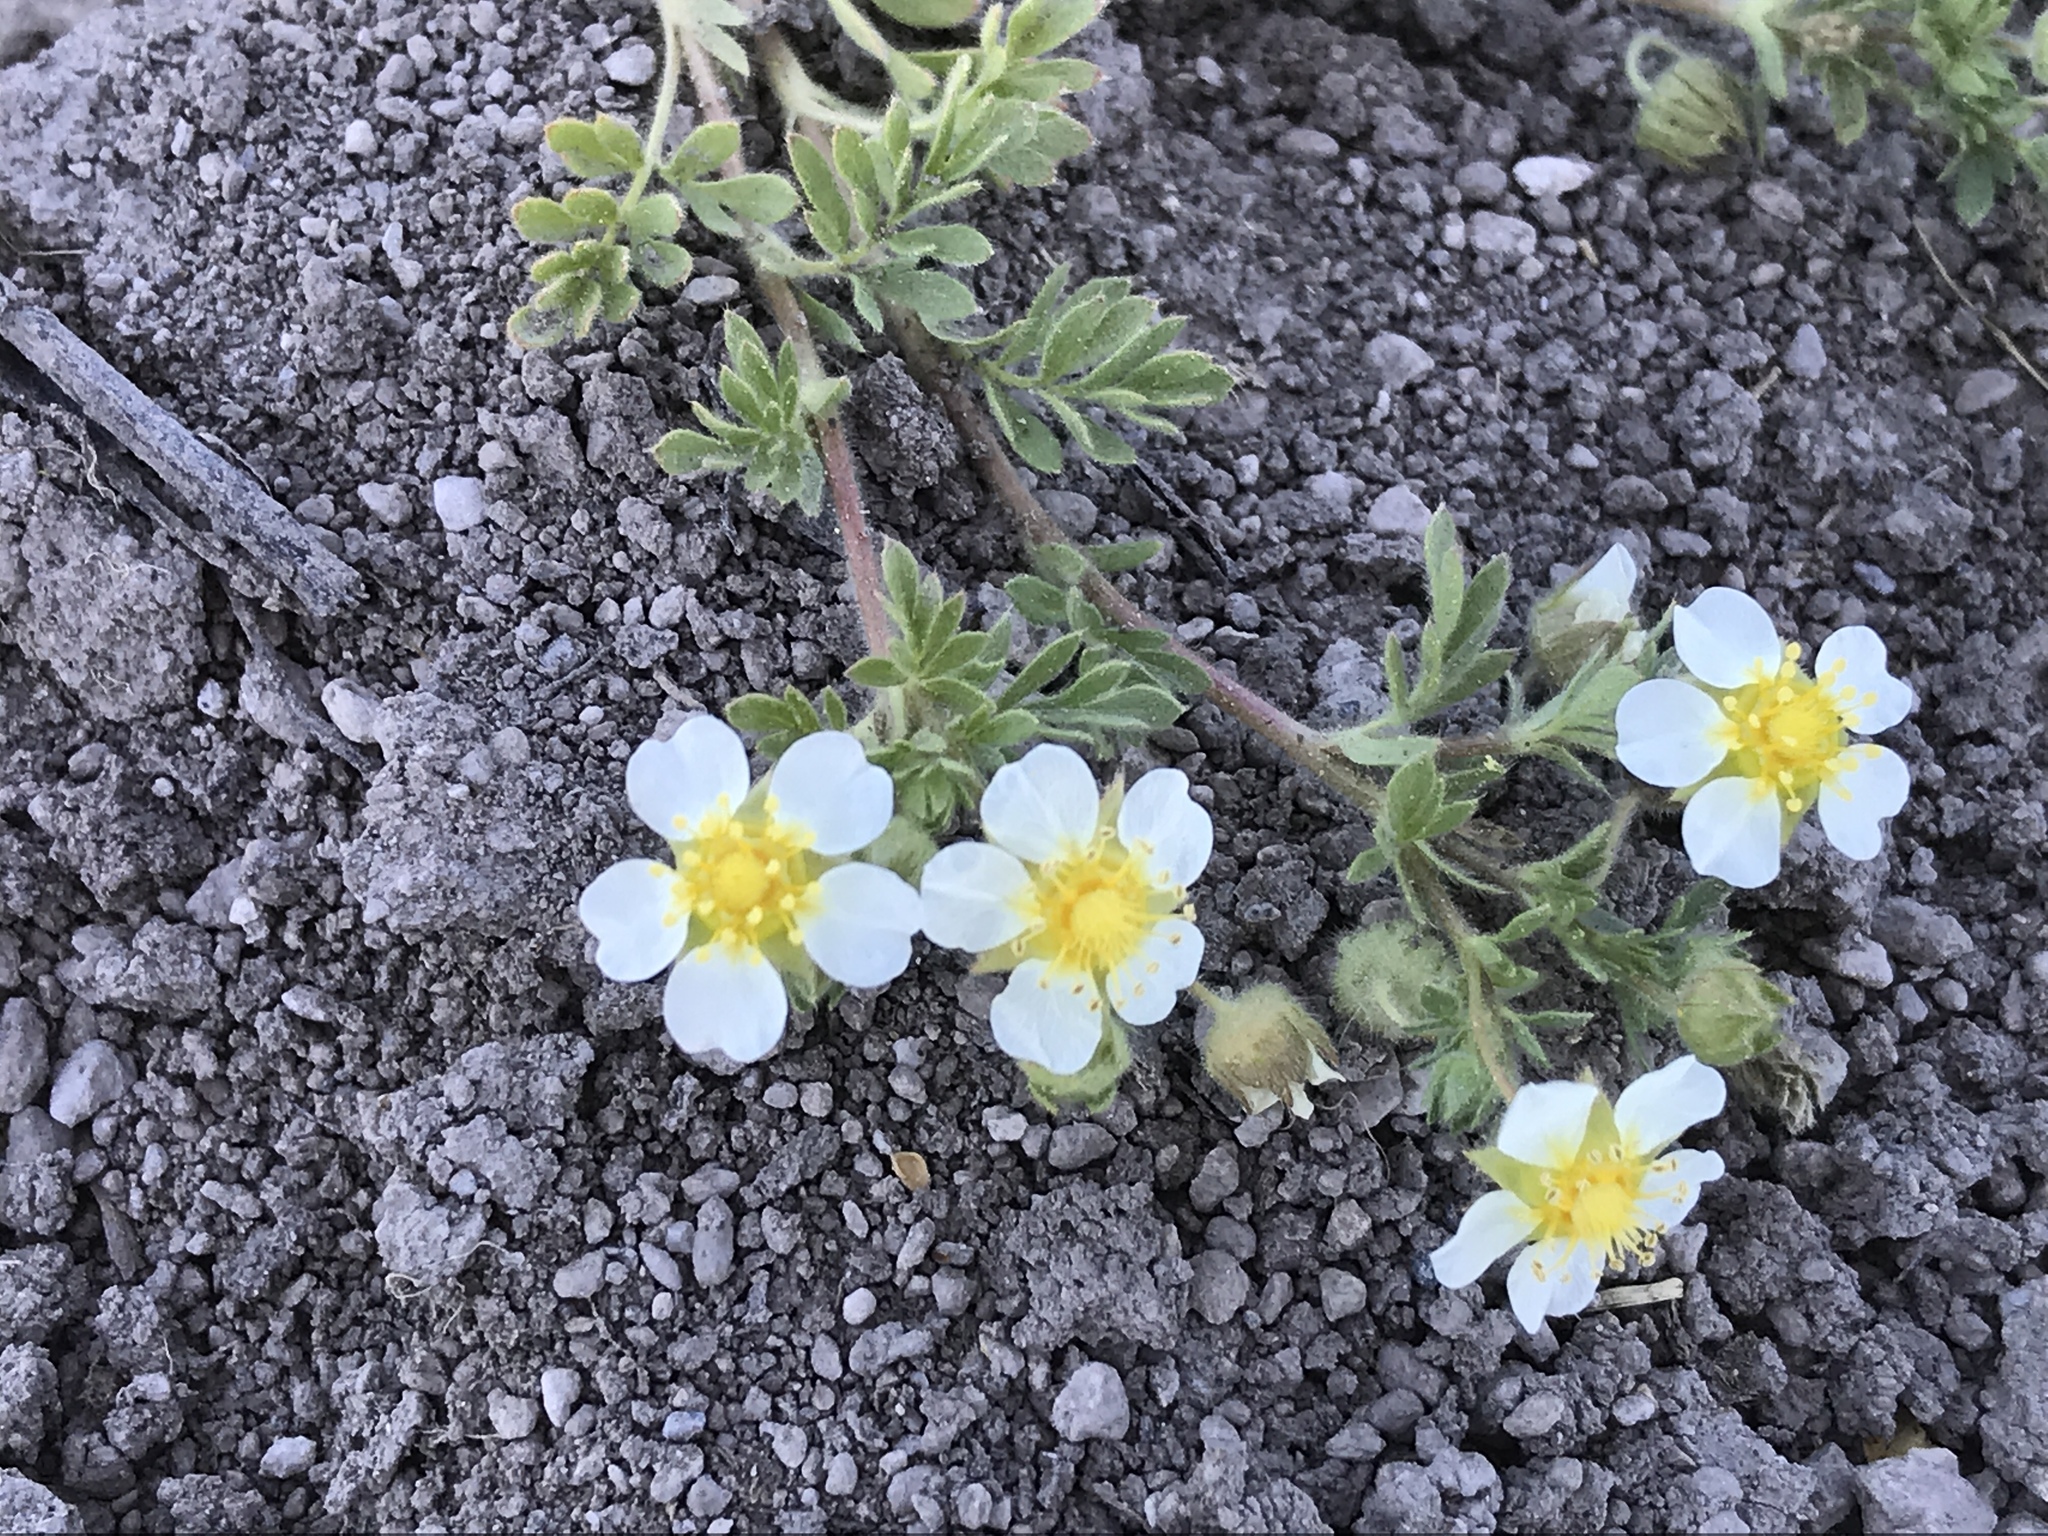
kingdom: Plantae
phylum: Tracheophyta
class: Magnoliopsida
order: Rosales
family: Rosaceae
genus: Potentilla
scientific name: Potentilla newberryi
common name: Newberry's cinquefoil
